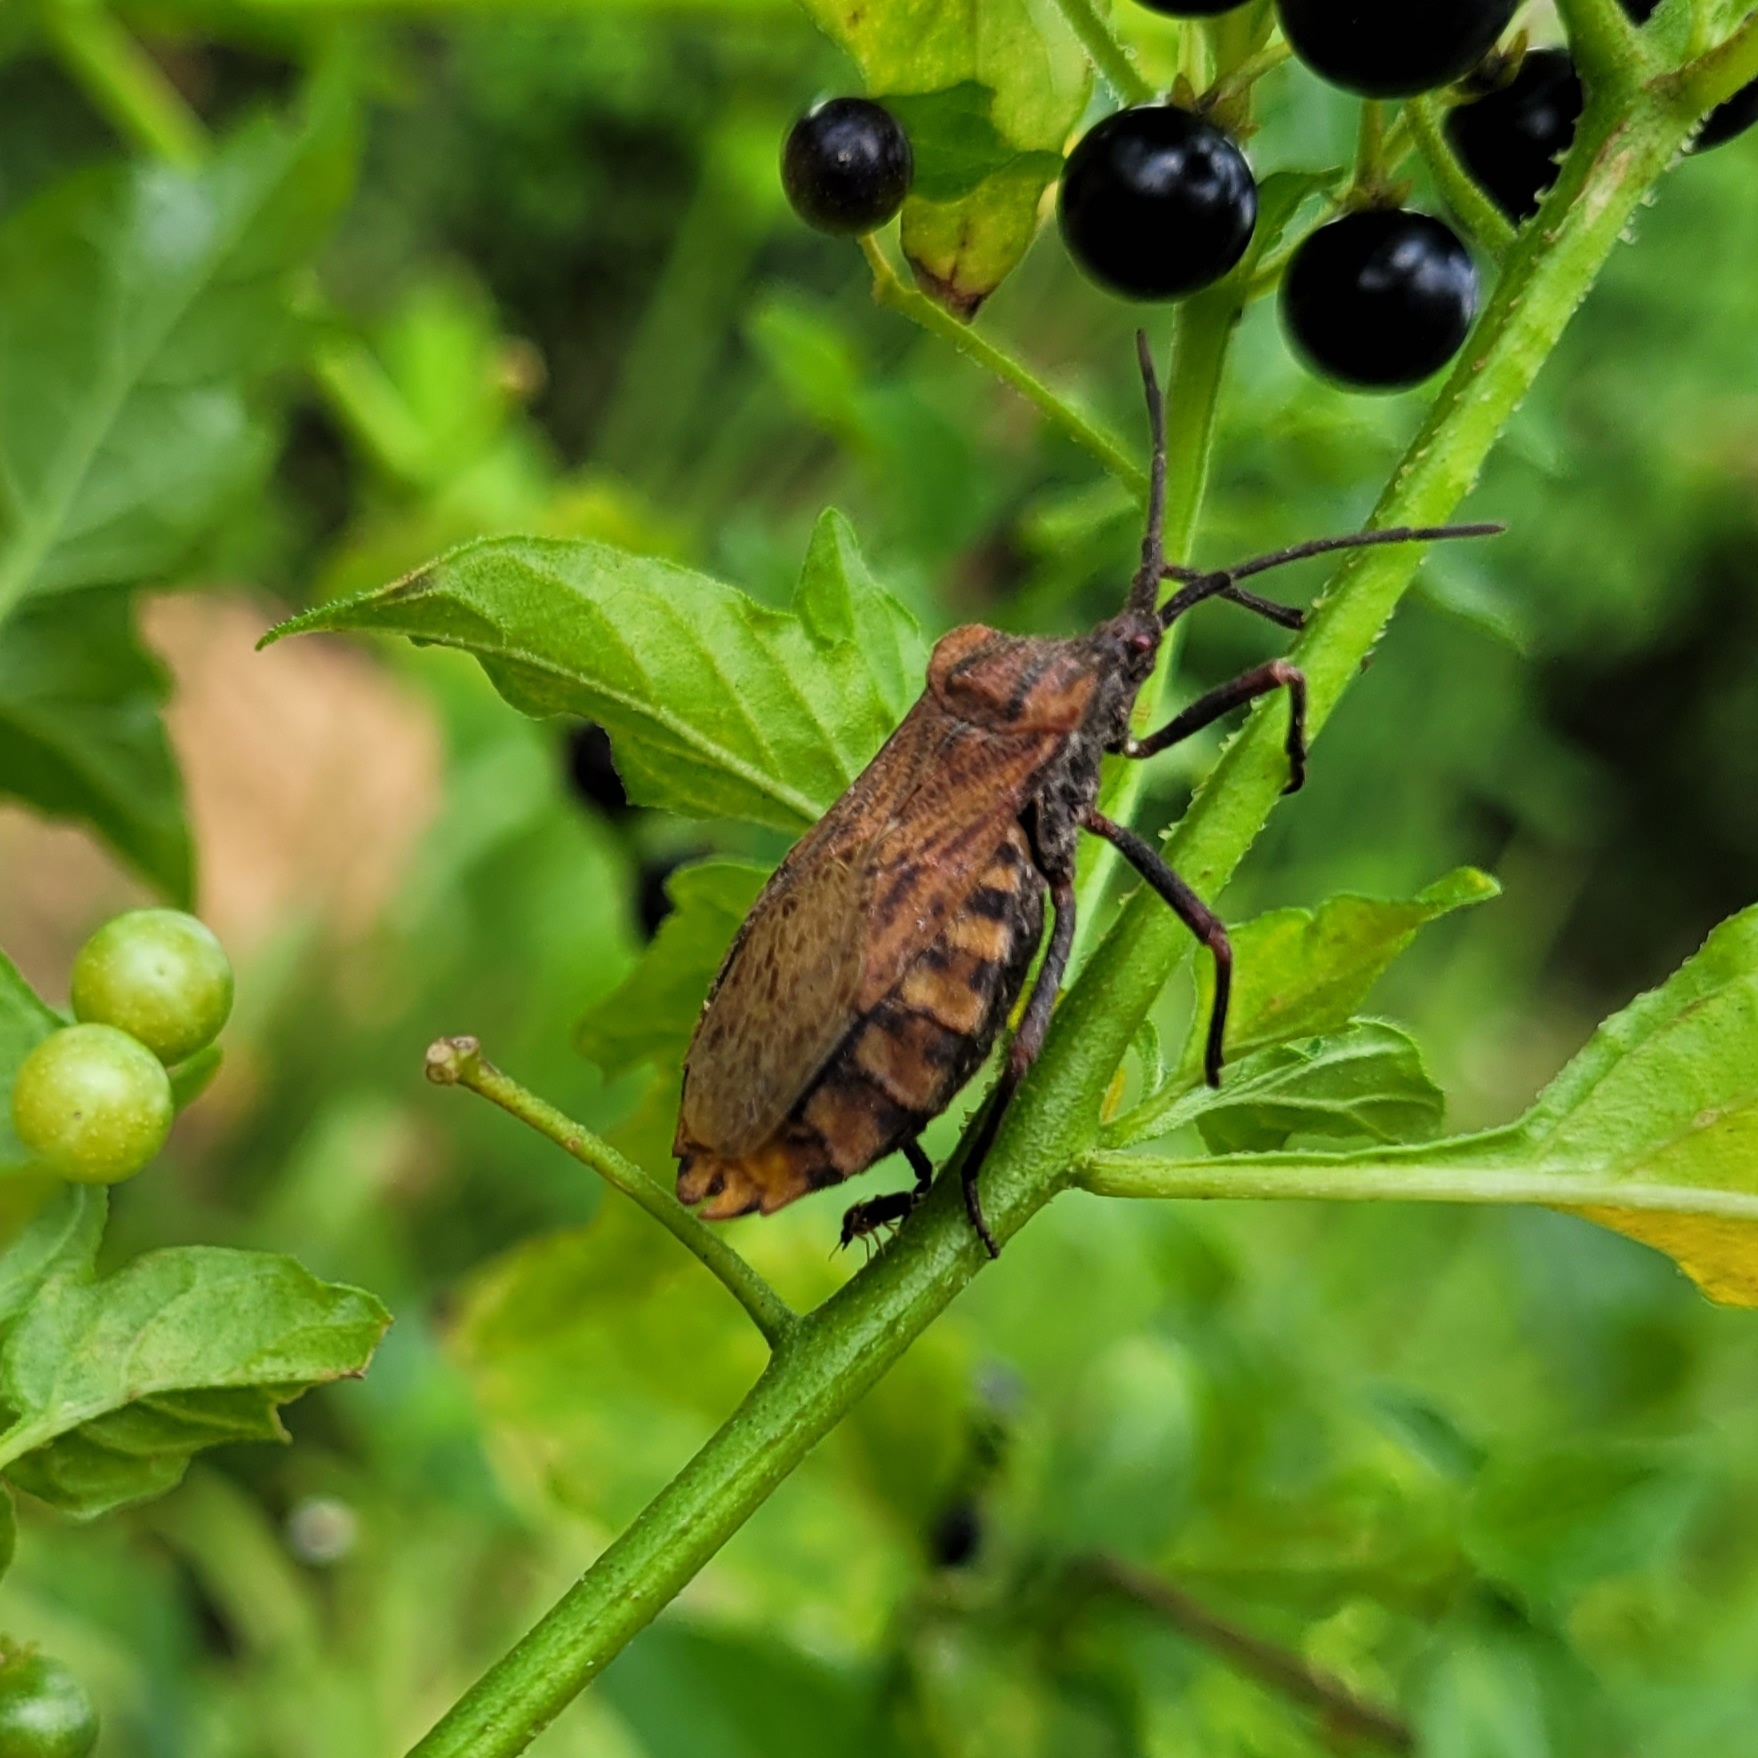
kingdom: Animalia
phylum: Arthropoda
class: Insecta
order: Hemiptera
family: Coreidae
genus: Spartocera
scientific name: Spartocera fusca
